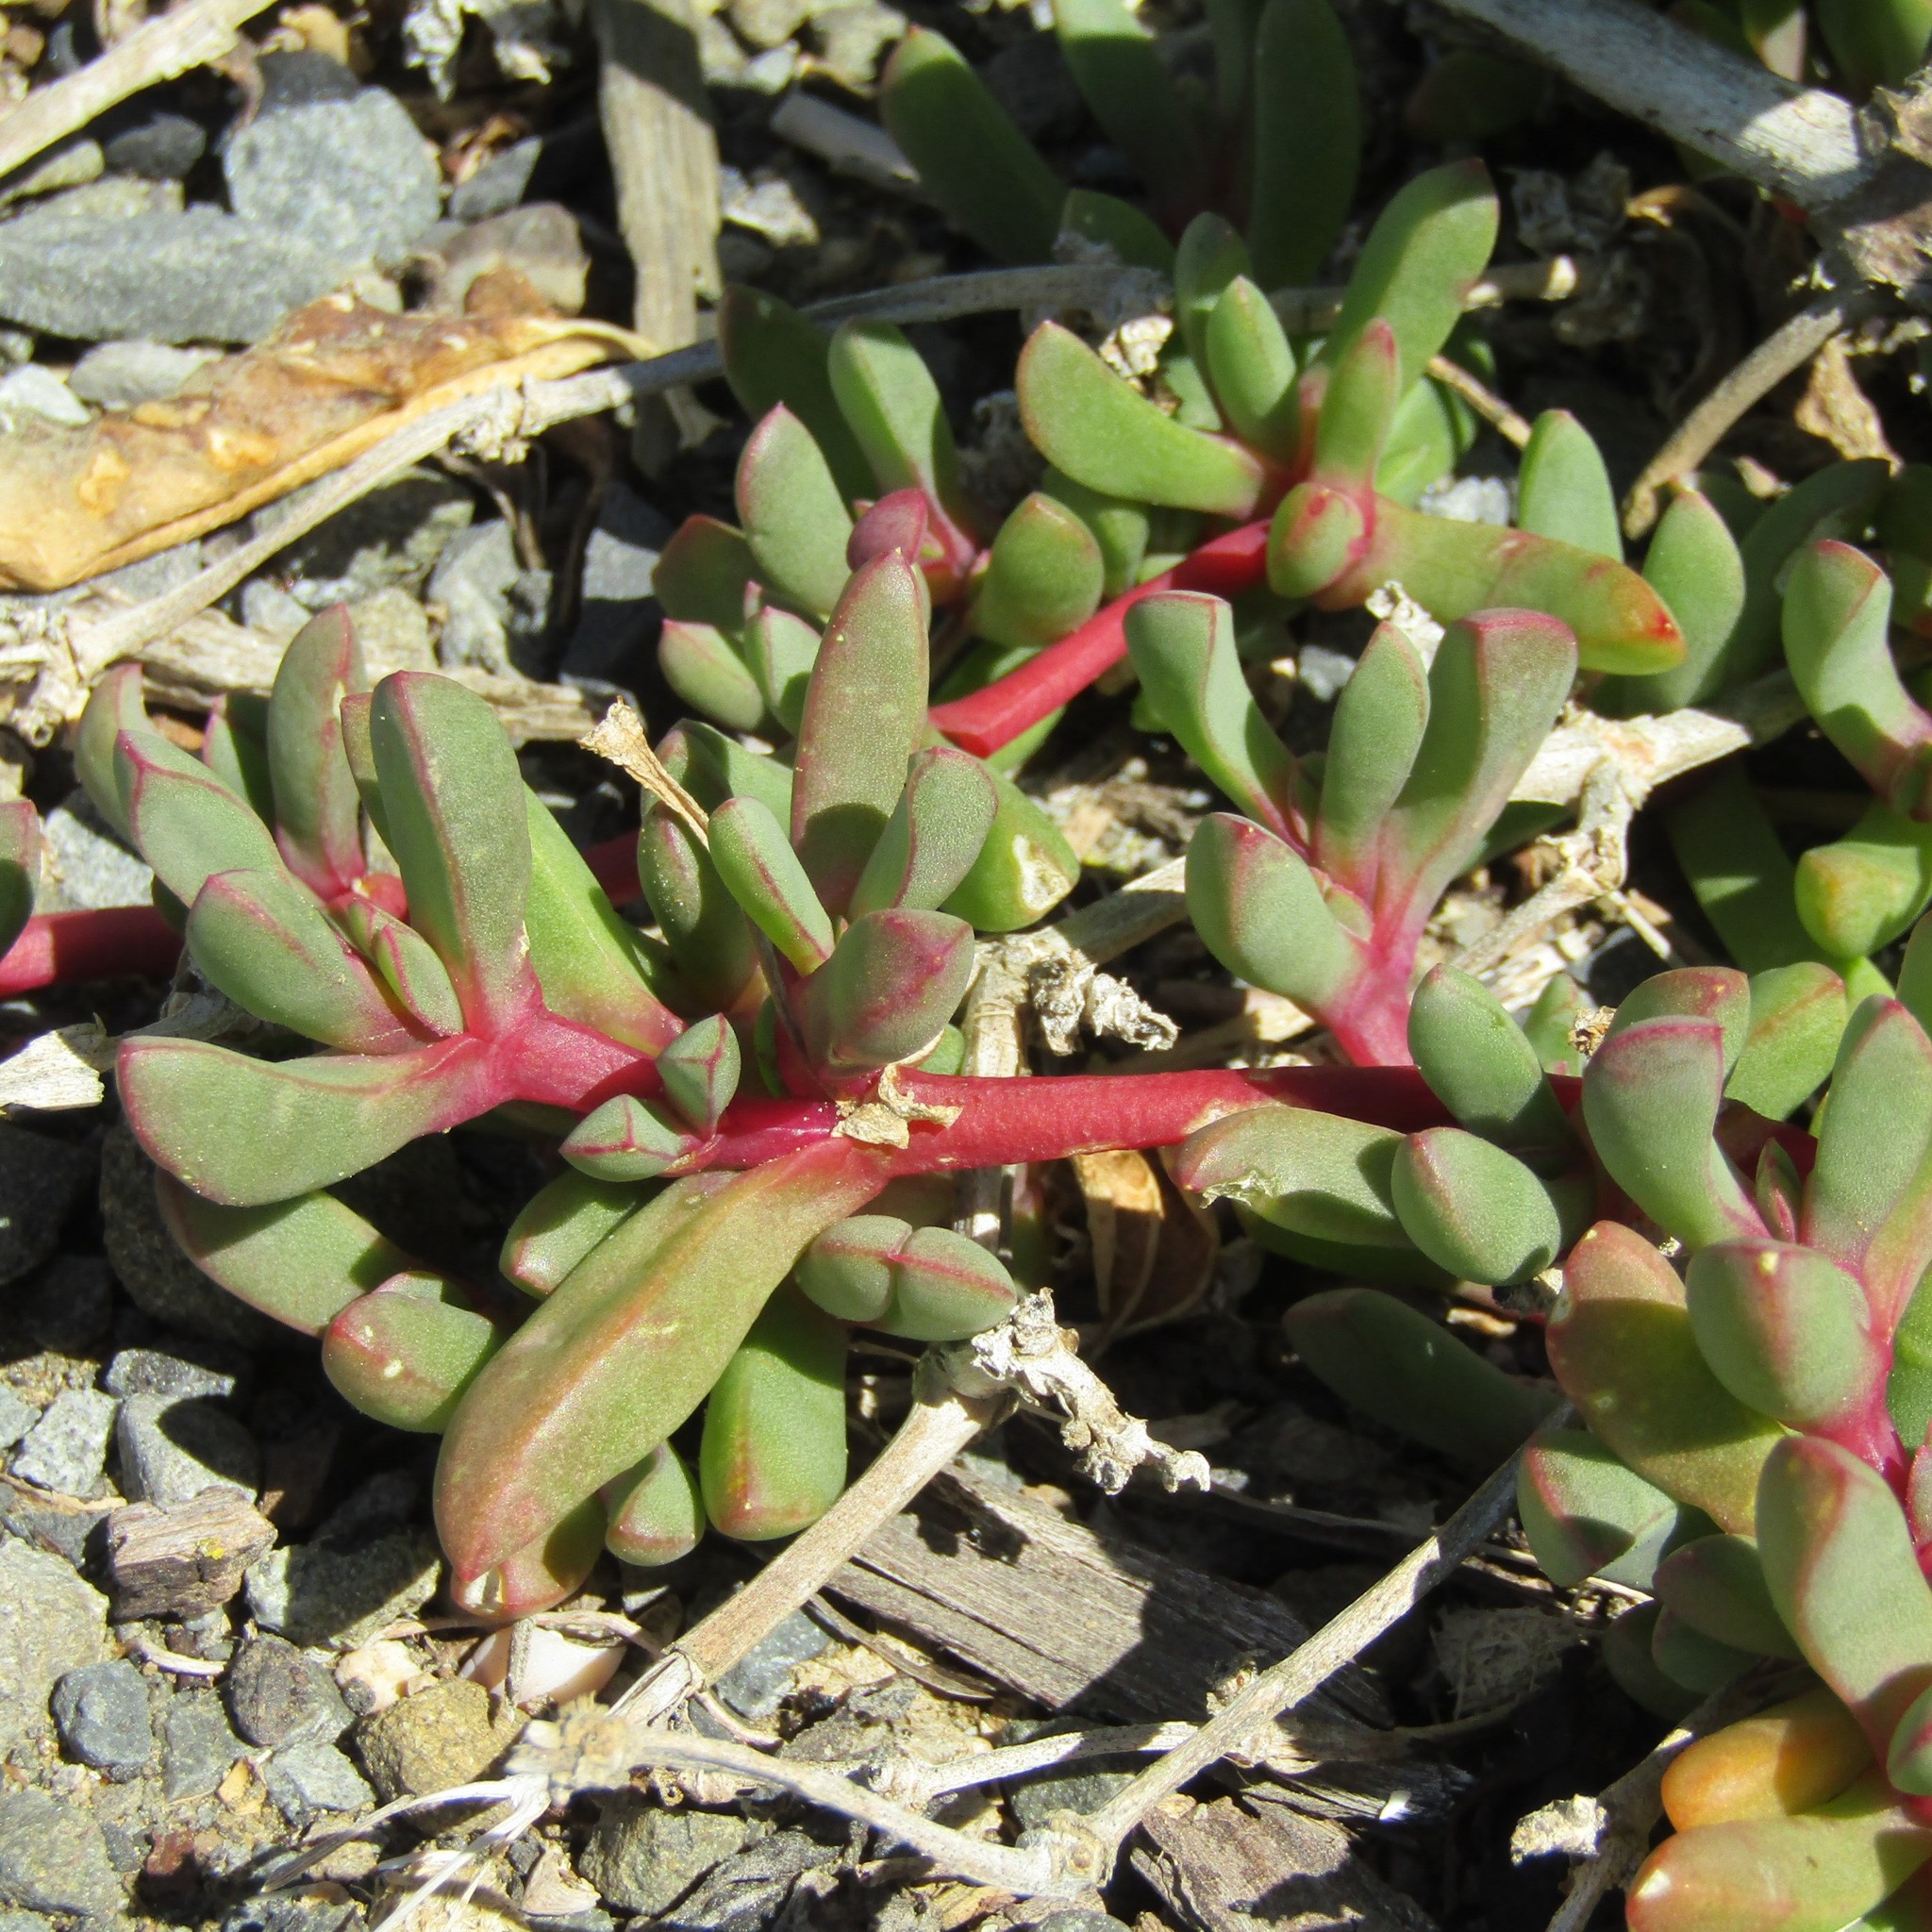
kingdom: Plantae
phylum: Tracheophyta
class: Magnoliopsida
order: Caryophyllales
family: Aizoaceae
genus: Disphyma
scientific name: Disphyma australe
